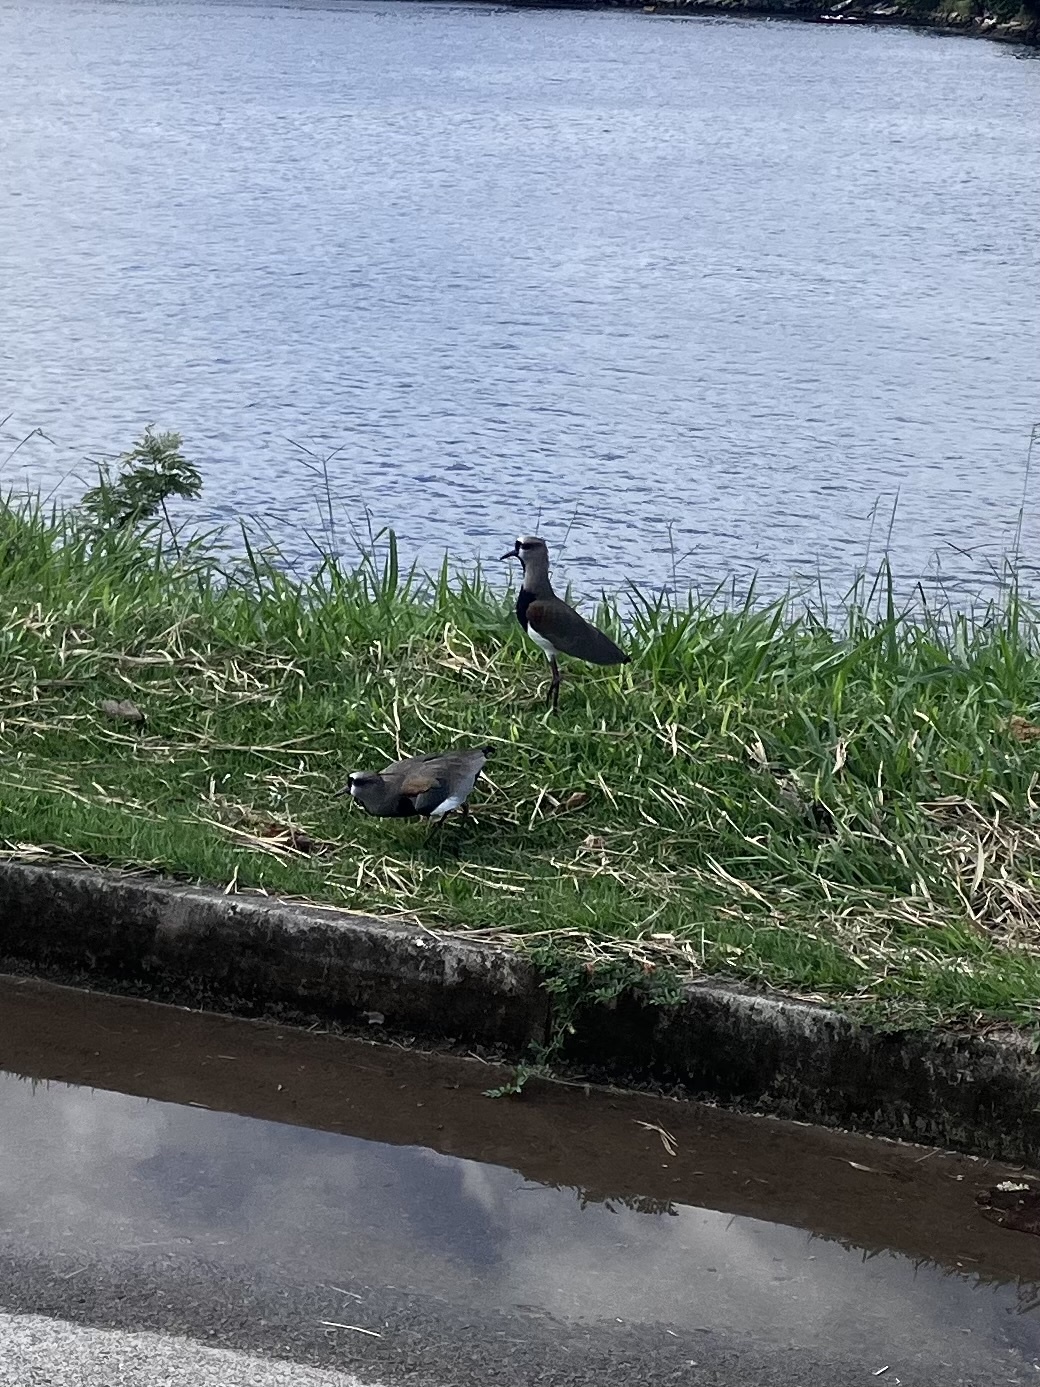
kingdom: Animalia
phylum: Chordata
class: Aves
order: Charadriiformes
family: Charadriidae
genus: Vanellus
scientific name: Vanellus chilensis
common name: Southern lapwing
